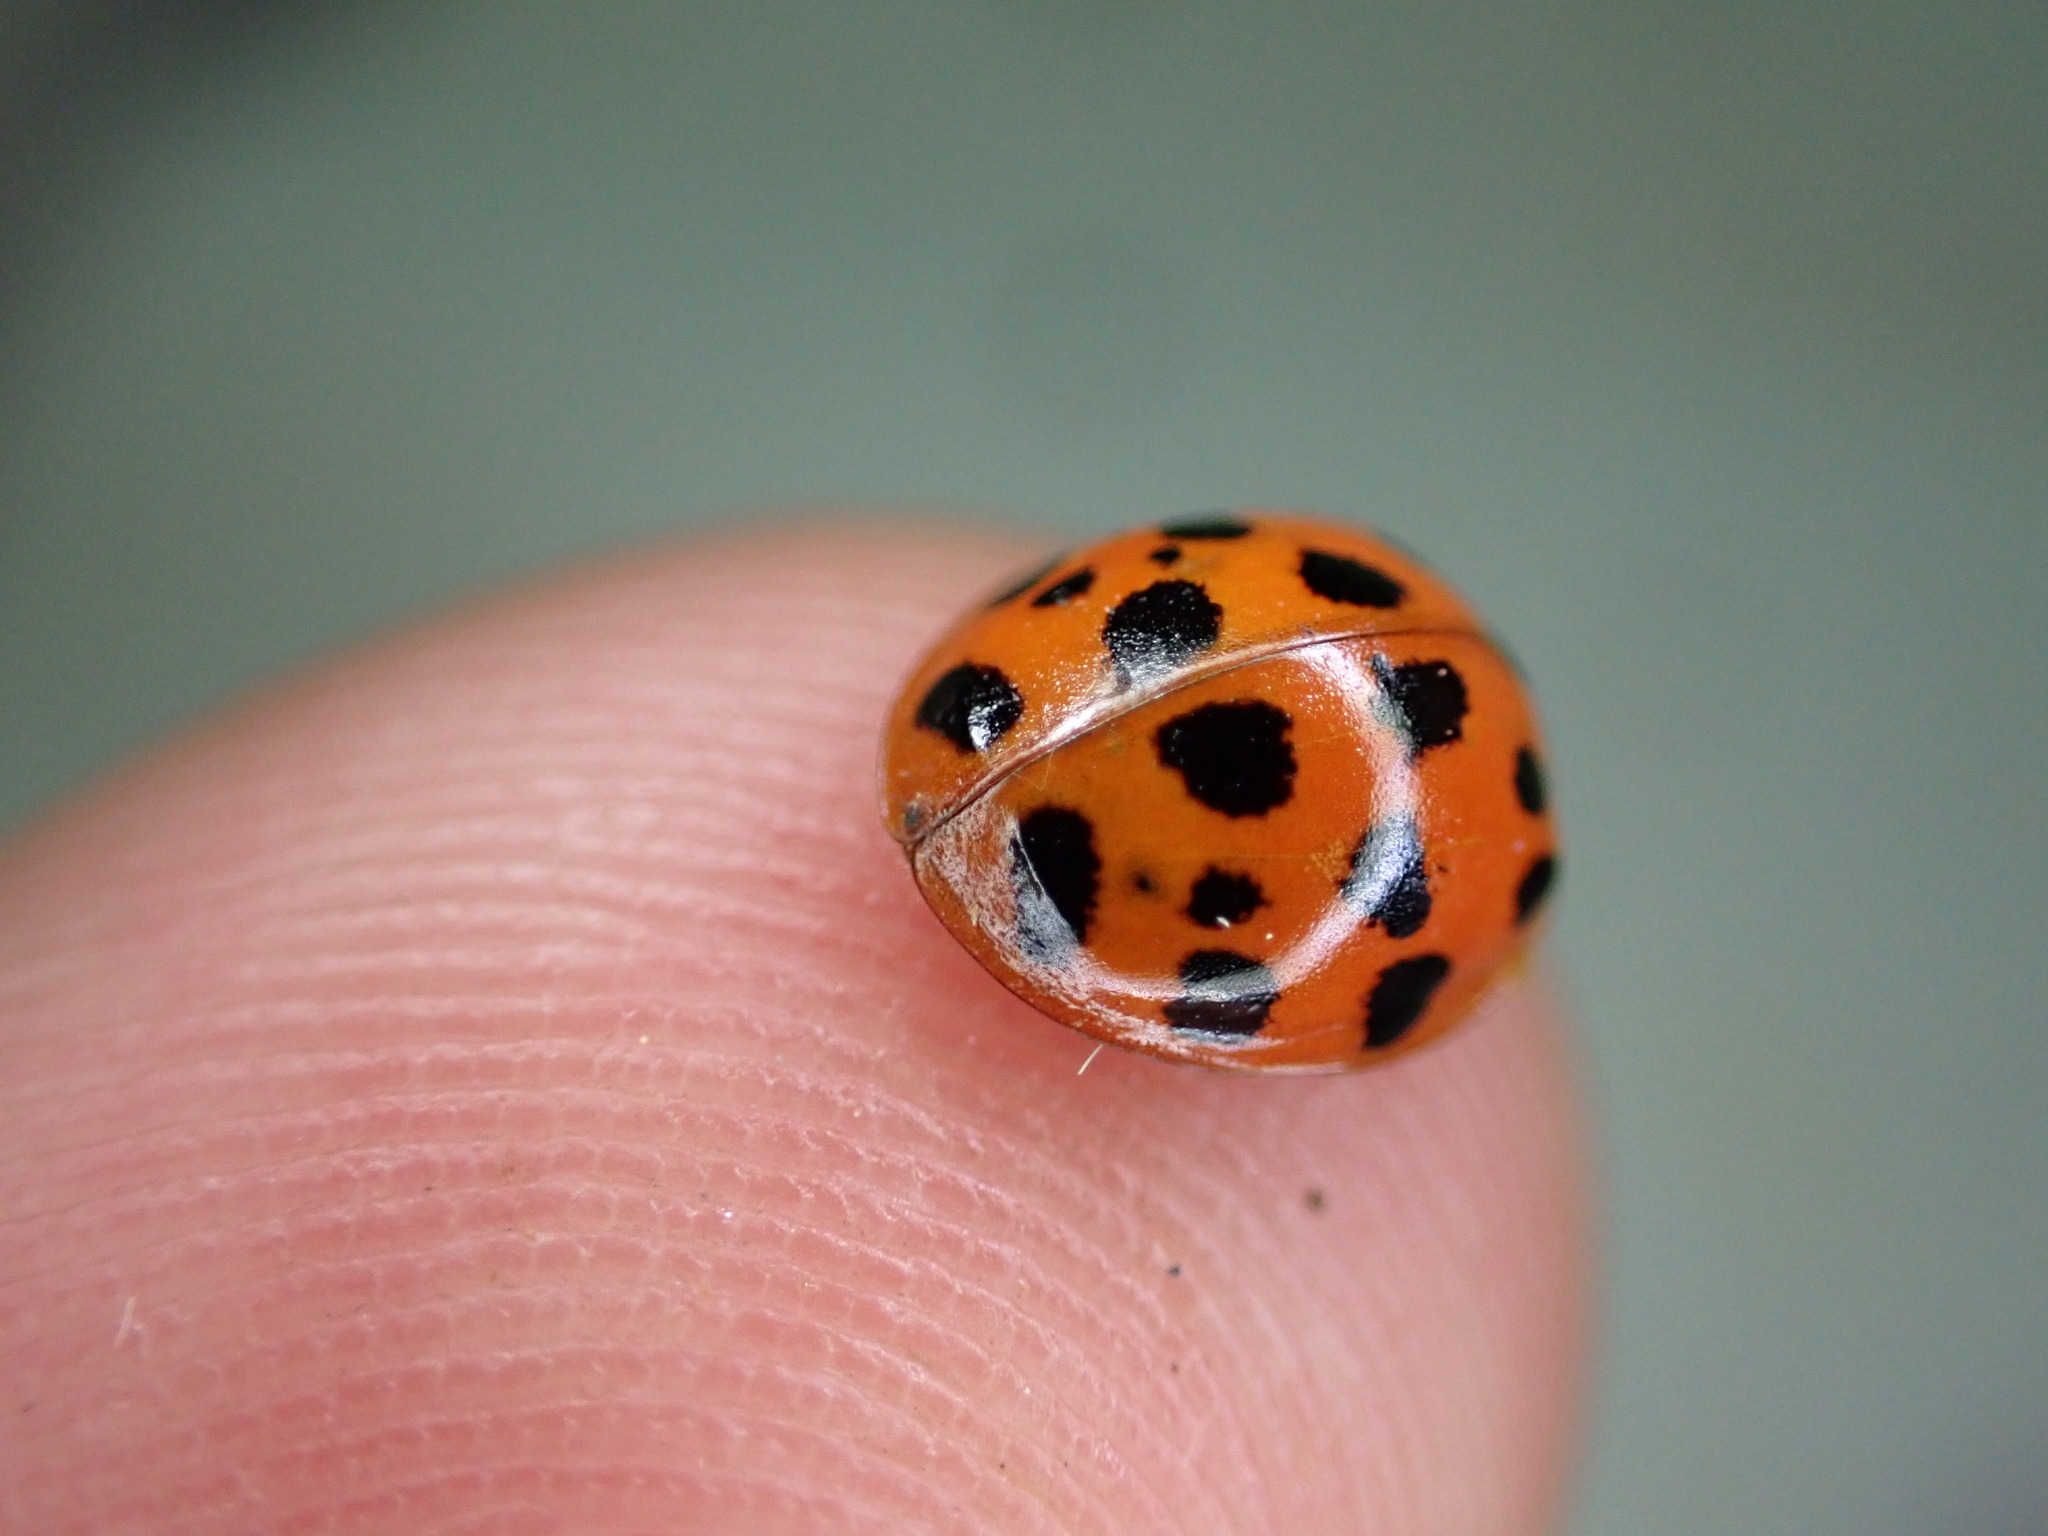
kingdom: Animalia
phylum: Arthropoda
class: Insecta
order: Coleoptera
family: Coccinellidae
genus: Harmonia
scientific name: Harmonia axyridis
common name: Harlequin ladybird
